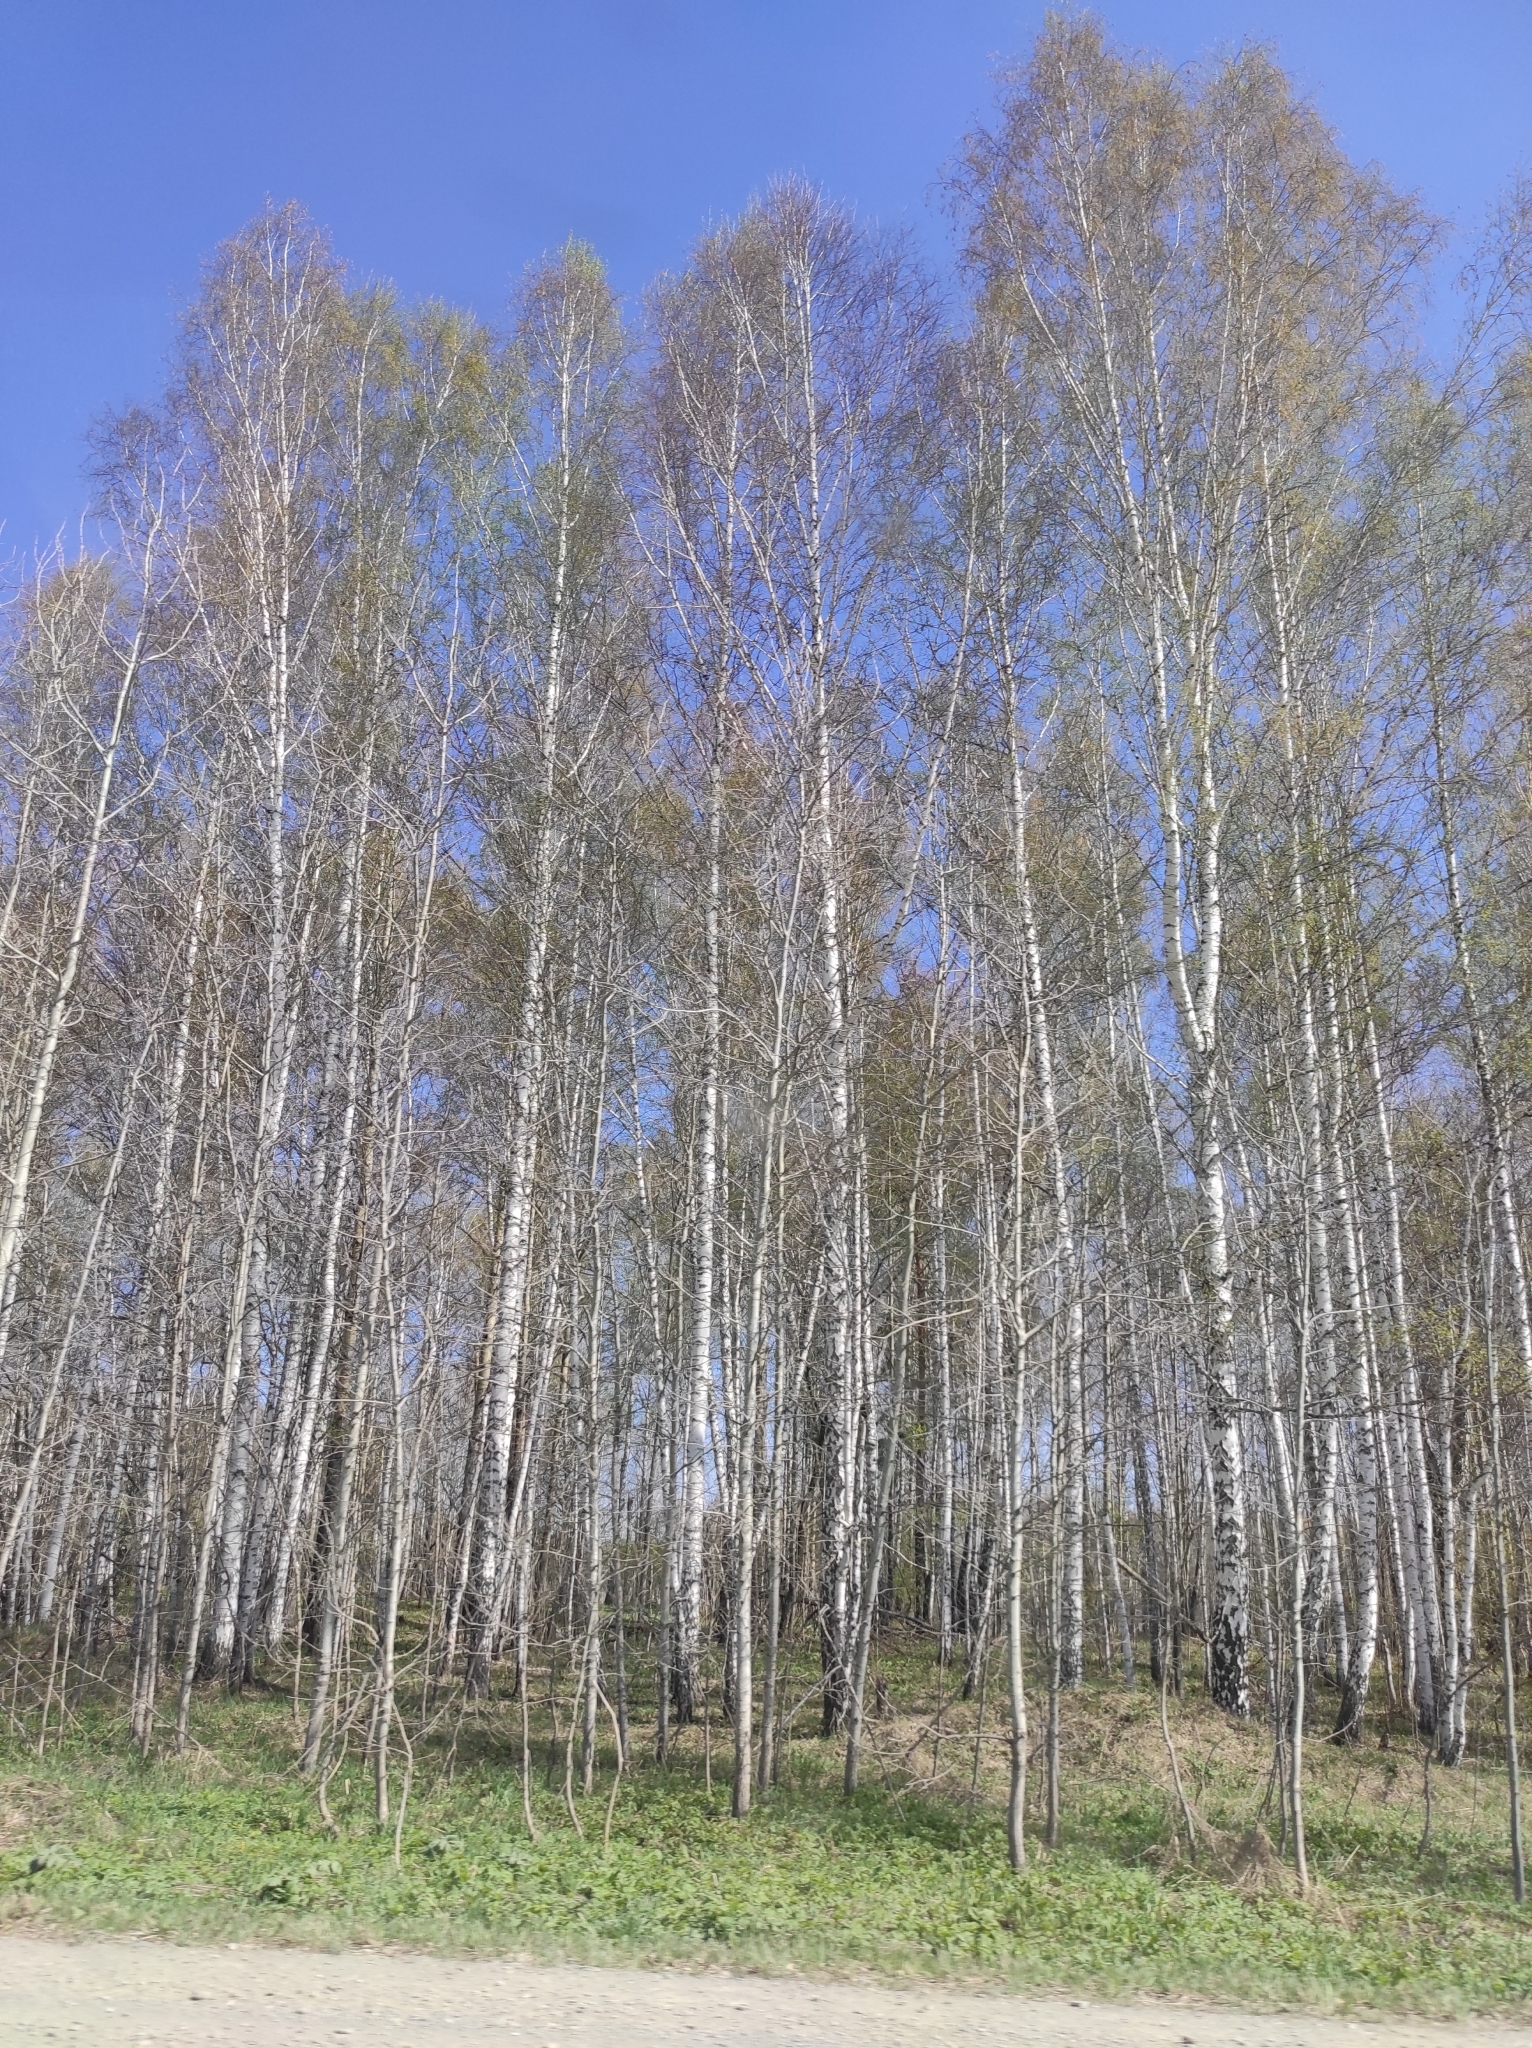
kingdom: Plantae
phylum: Tracheophyta
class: Magnoliopsida
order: Fagales
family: Betulaceae
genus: Betula
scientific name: Betula pendula
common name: Silver birch
